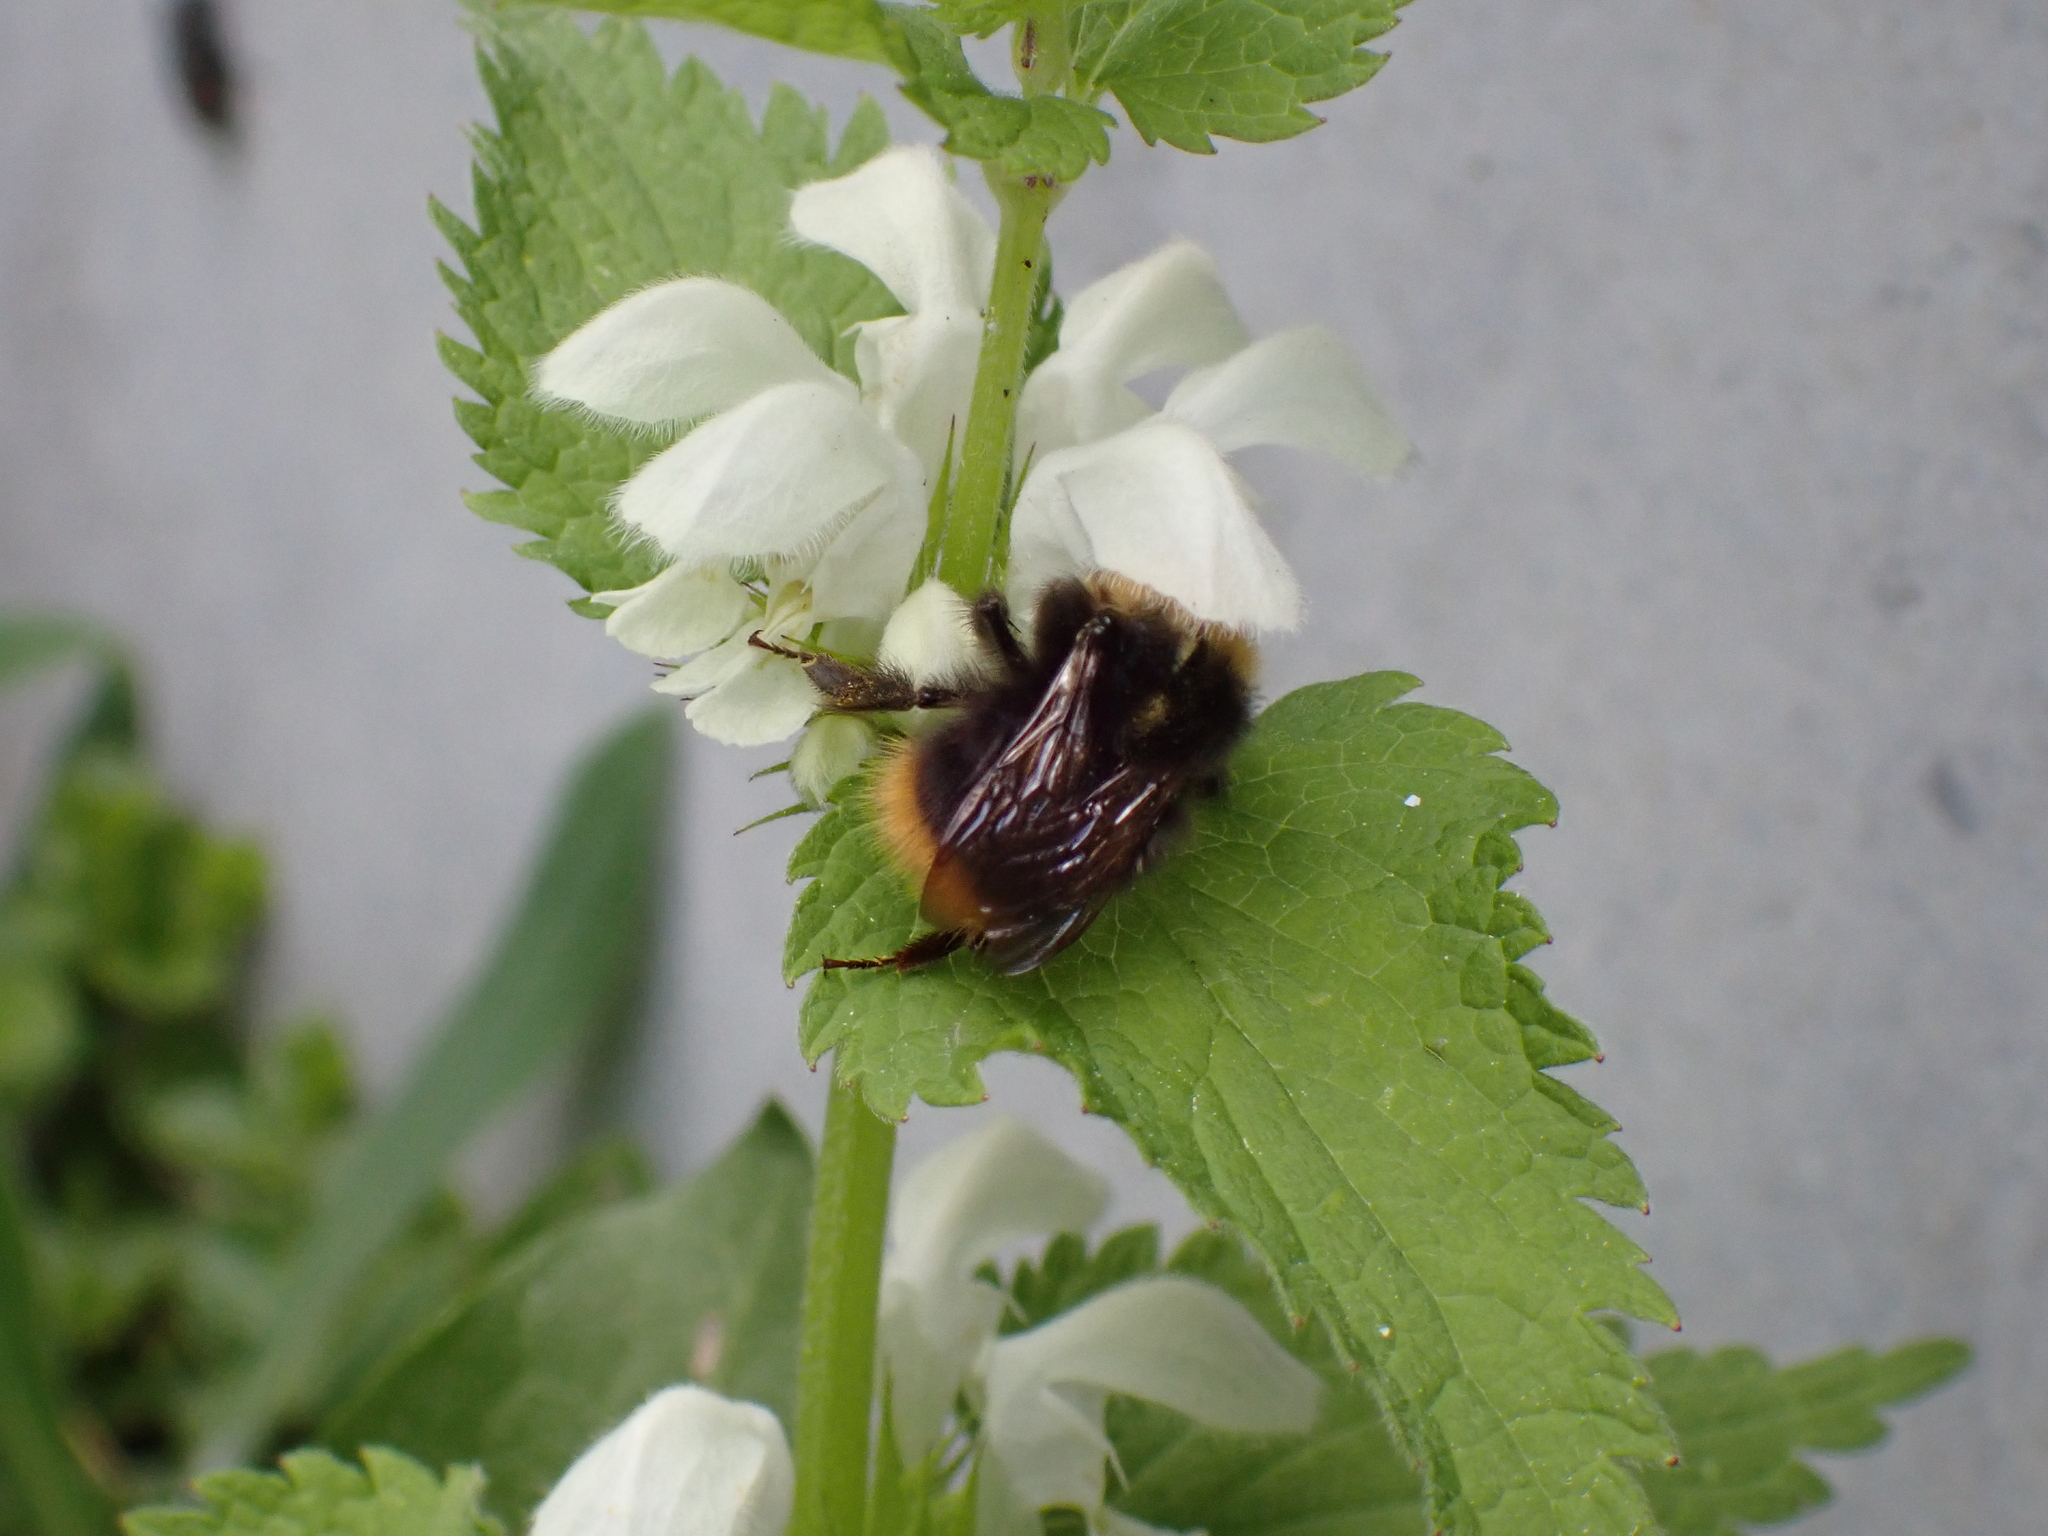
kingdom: Animalia
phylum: Arthropoda
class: Insecta
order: Hymenoptera
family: Apidae
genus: Bombus
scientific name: Bombus pratorum
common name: Early humble-bee
